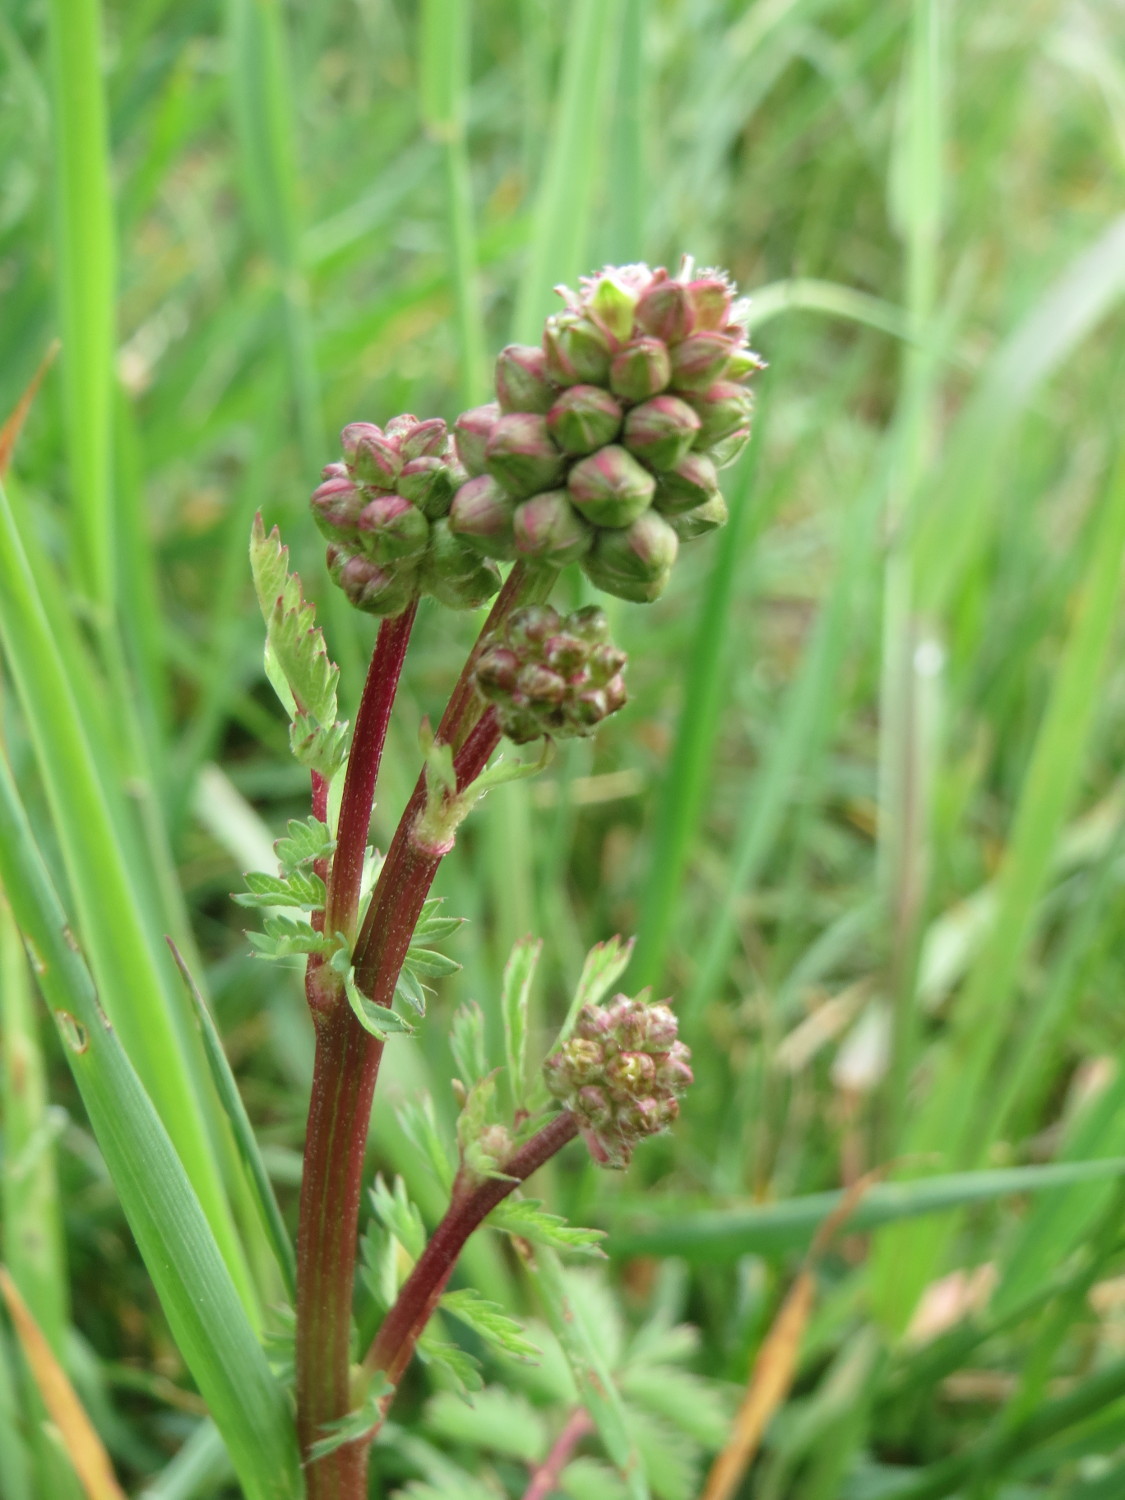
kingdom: Plantae
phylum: Tracheophyta
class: Magnoliopsida
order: Rosales
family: Rosaceae
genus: Poterium
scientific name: Poterium sanguisorba
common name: Salad burnet
